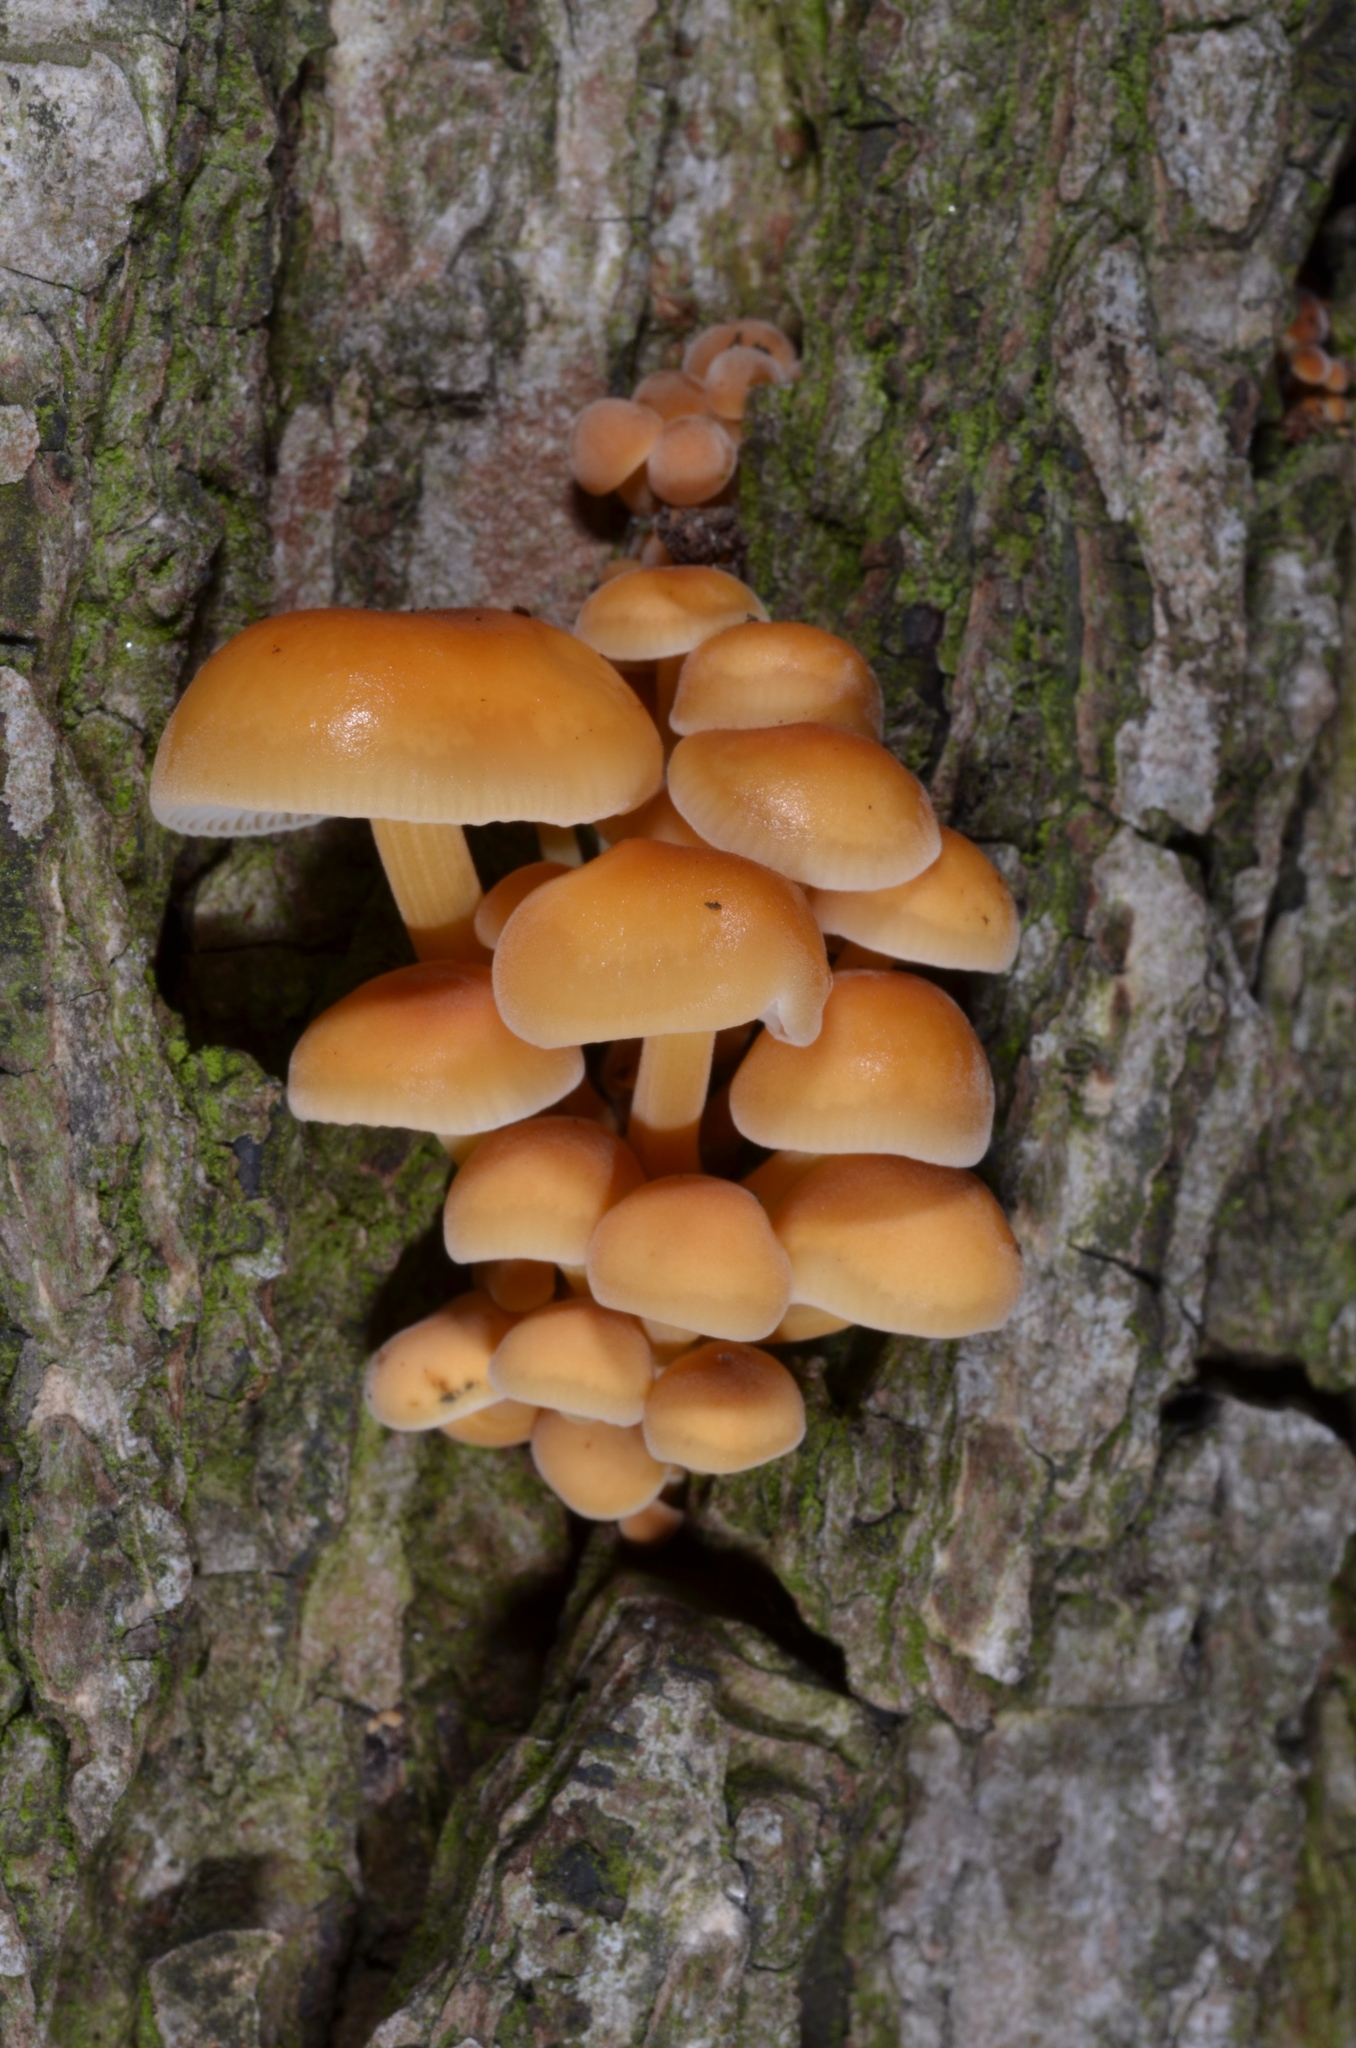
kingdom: Fungi
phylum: Basidiomycota
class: Agaricomycetes
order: Agaricales
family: Physalacriaceae
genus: Flammulina
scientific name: Flammulina
